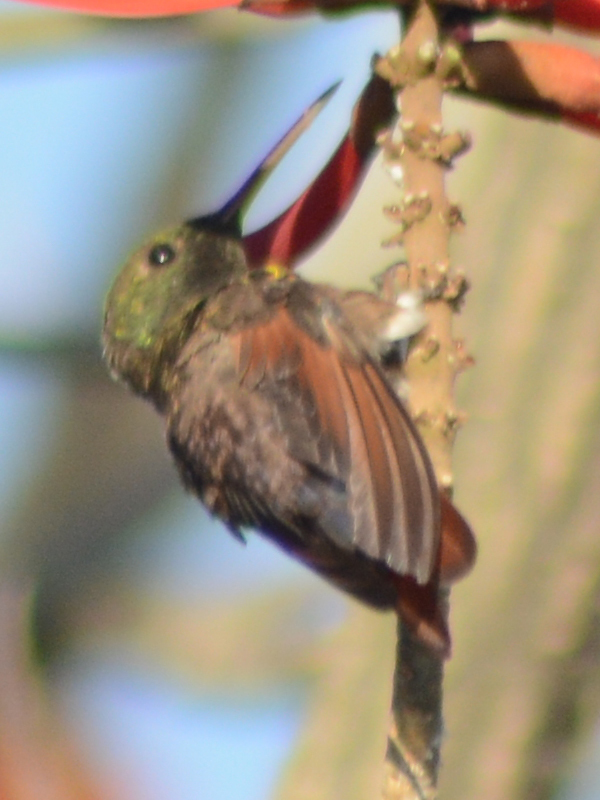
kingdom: Animalia
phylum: Chordata
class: Aves
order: Apodiformes
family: Trochilidae
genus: Saucerottia
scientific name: Saucerottia beryllina
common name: Berylline hummingbird
